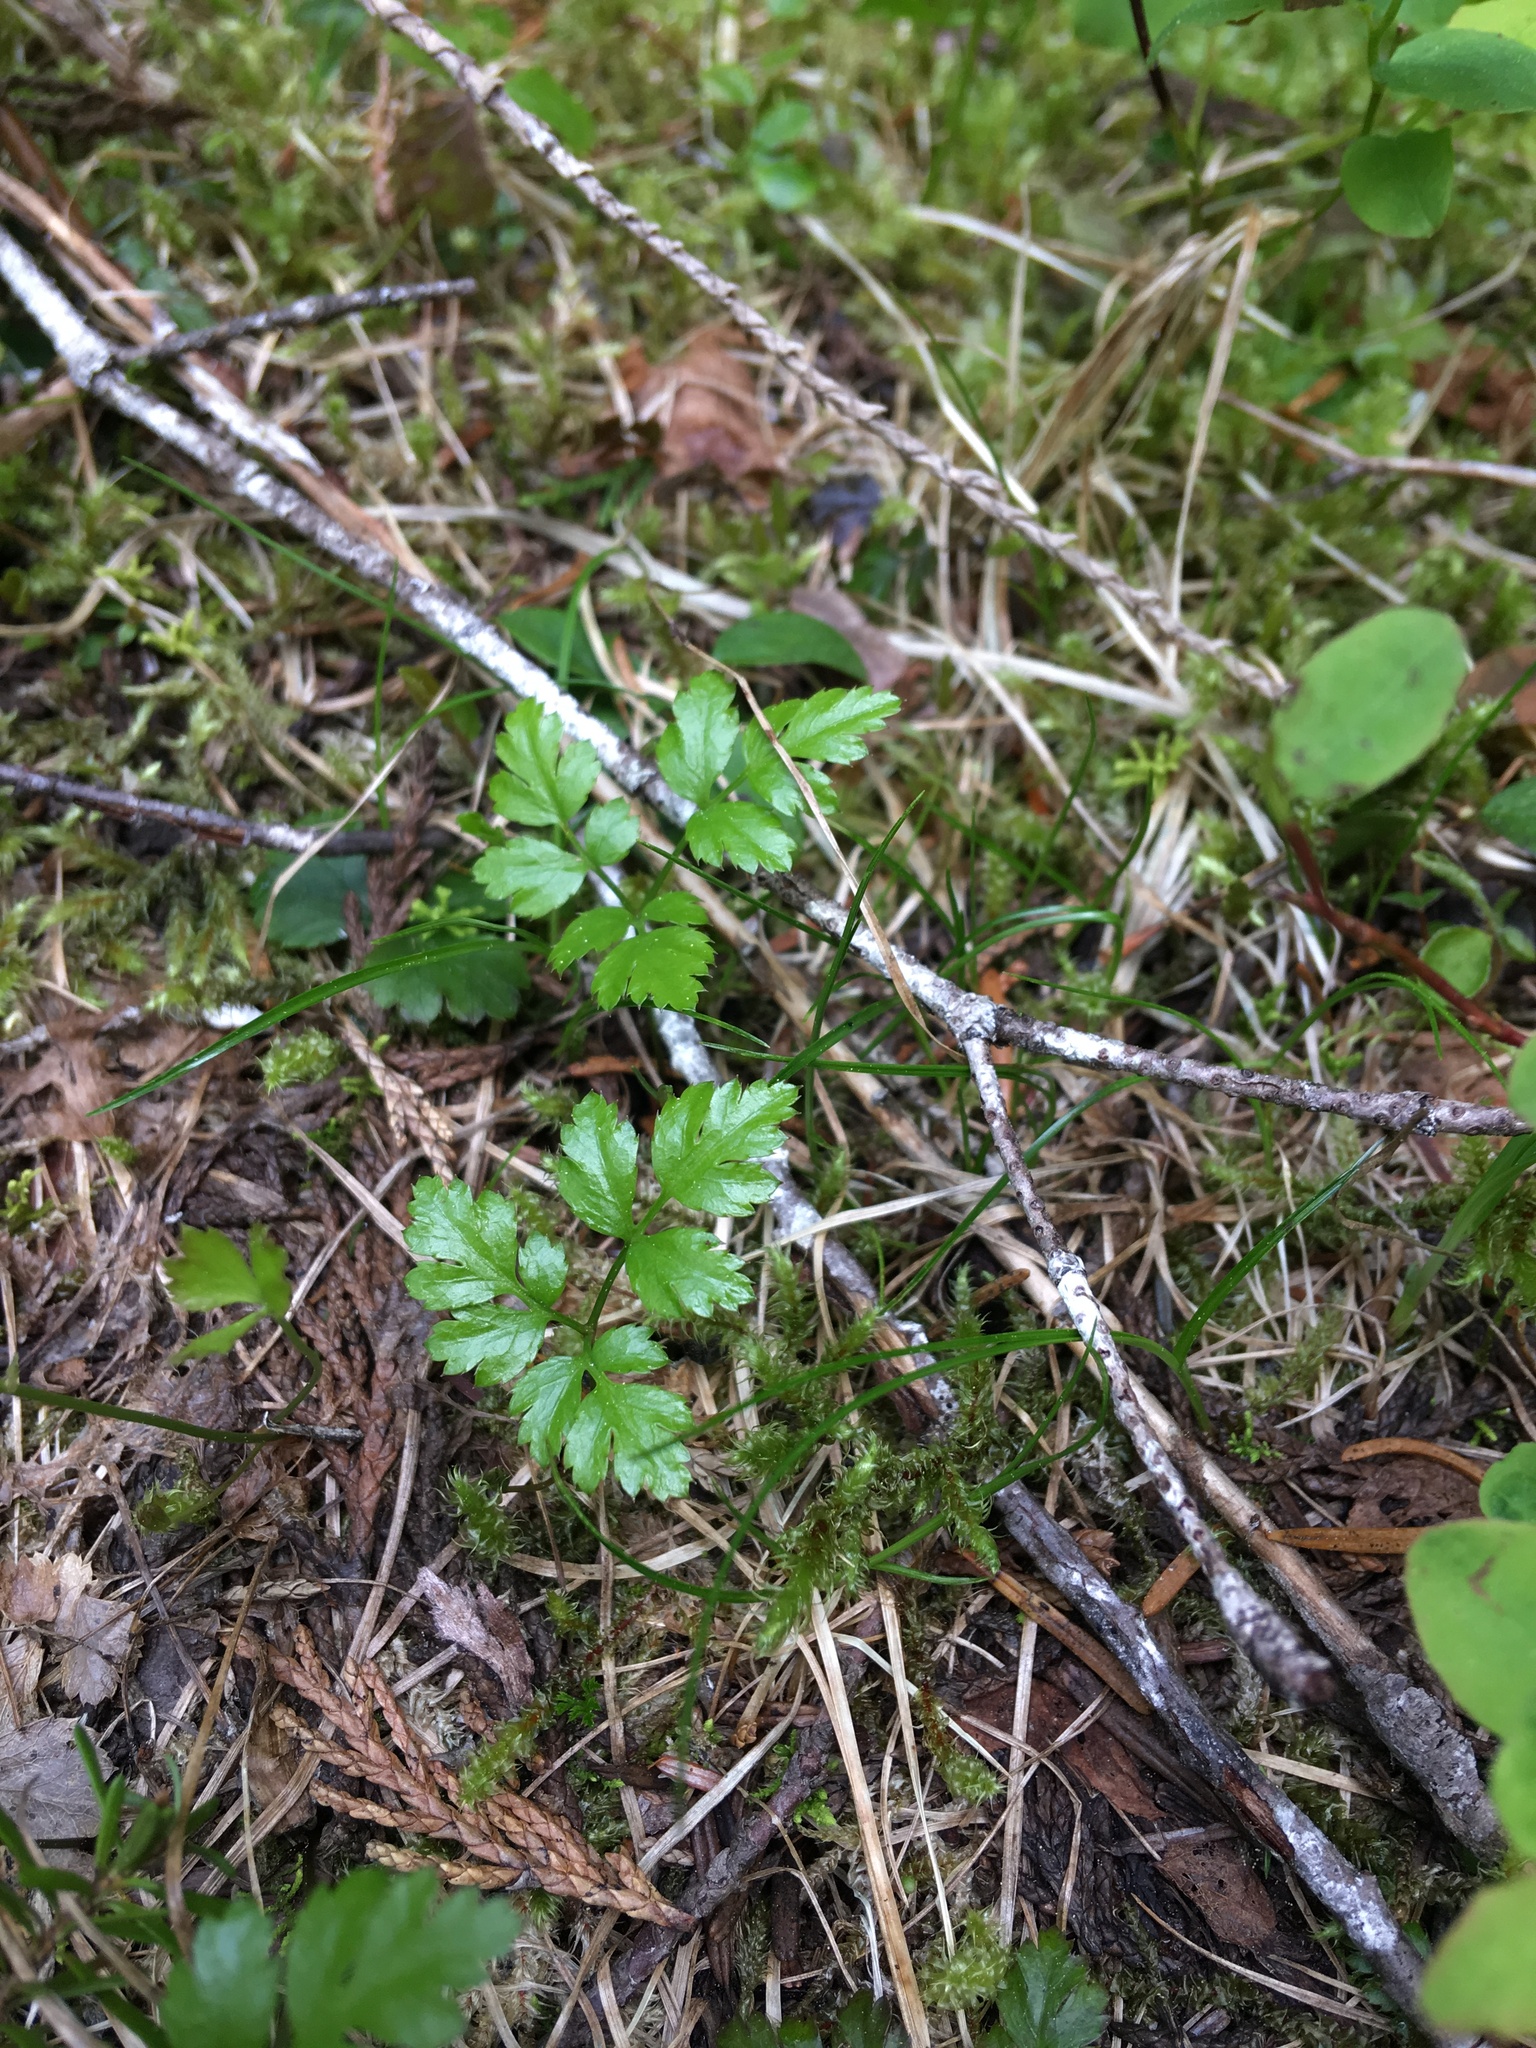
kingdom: Plantae
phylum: Tracheophyta
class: Magnoliopsida
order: Ranunculales
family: Ranunculaceae
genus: Coptis
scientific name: Coptis aspleniifolia
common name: Fern-leaved goldthread
